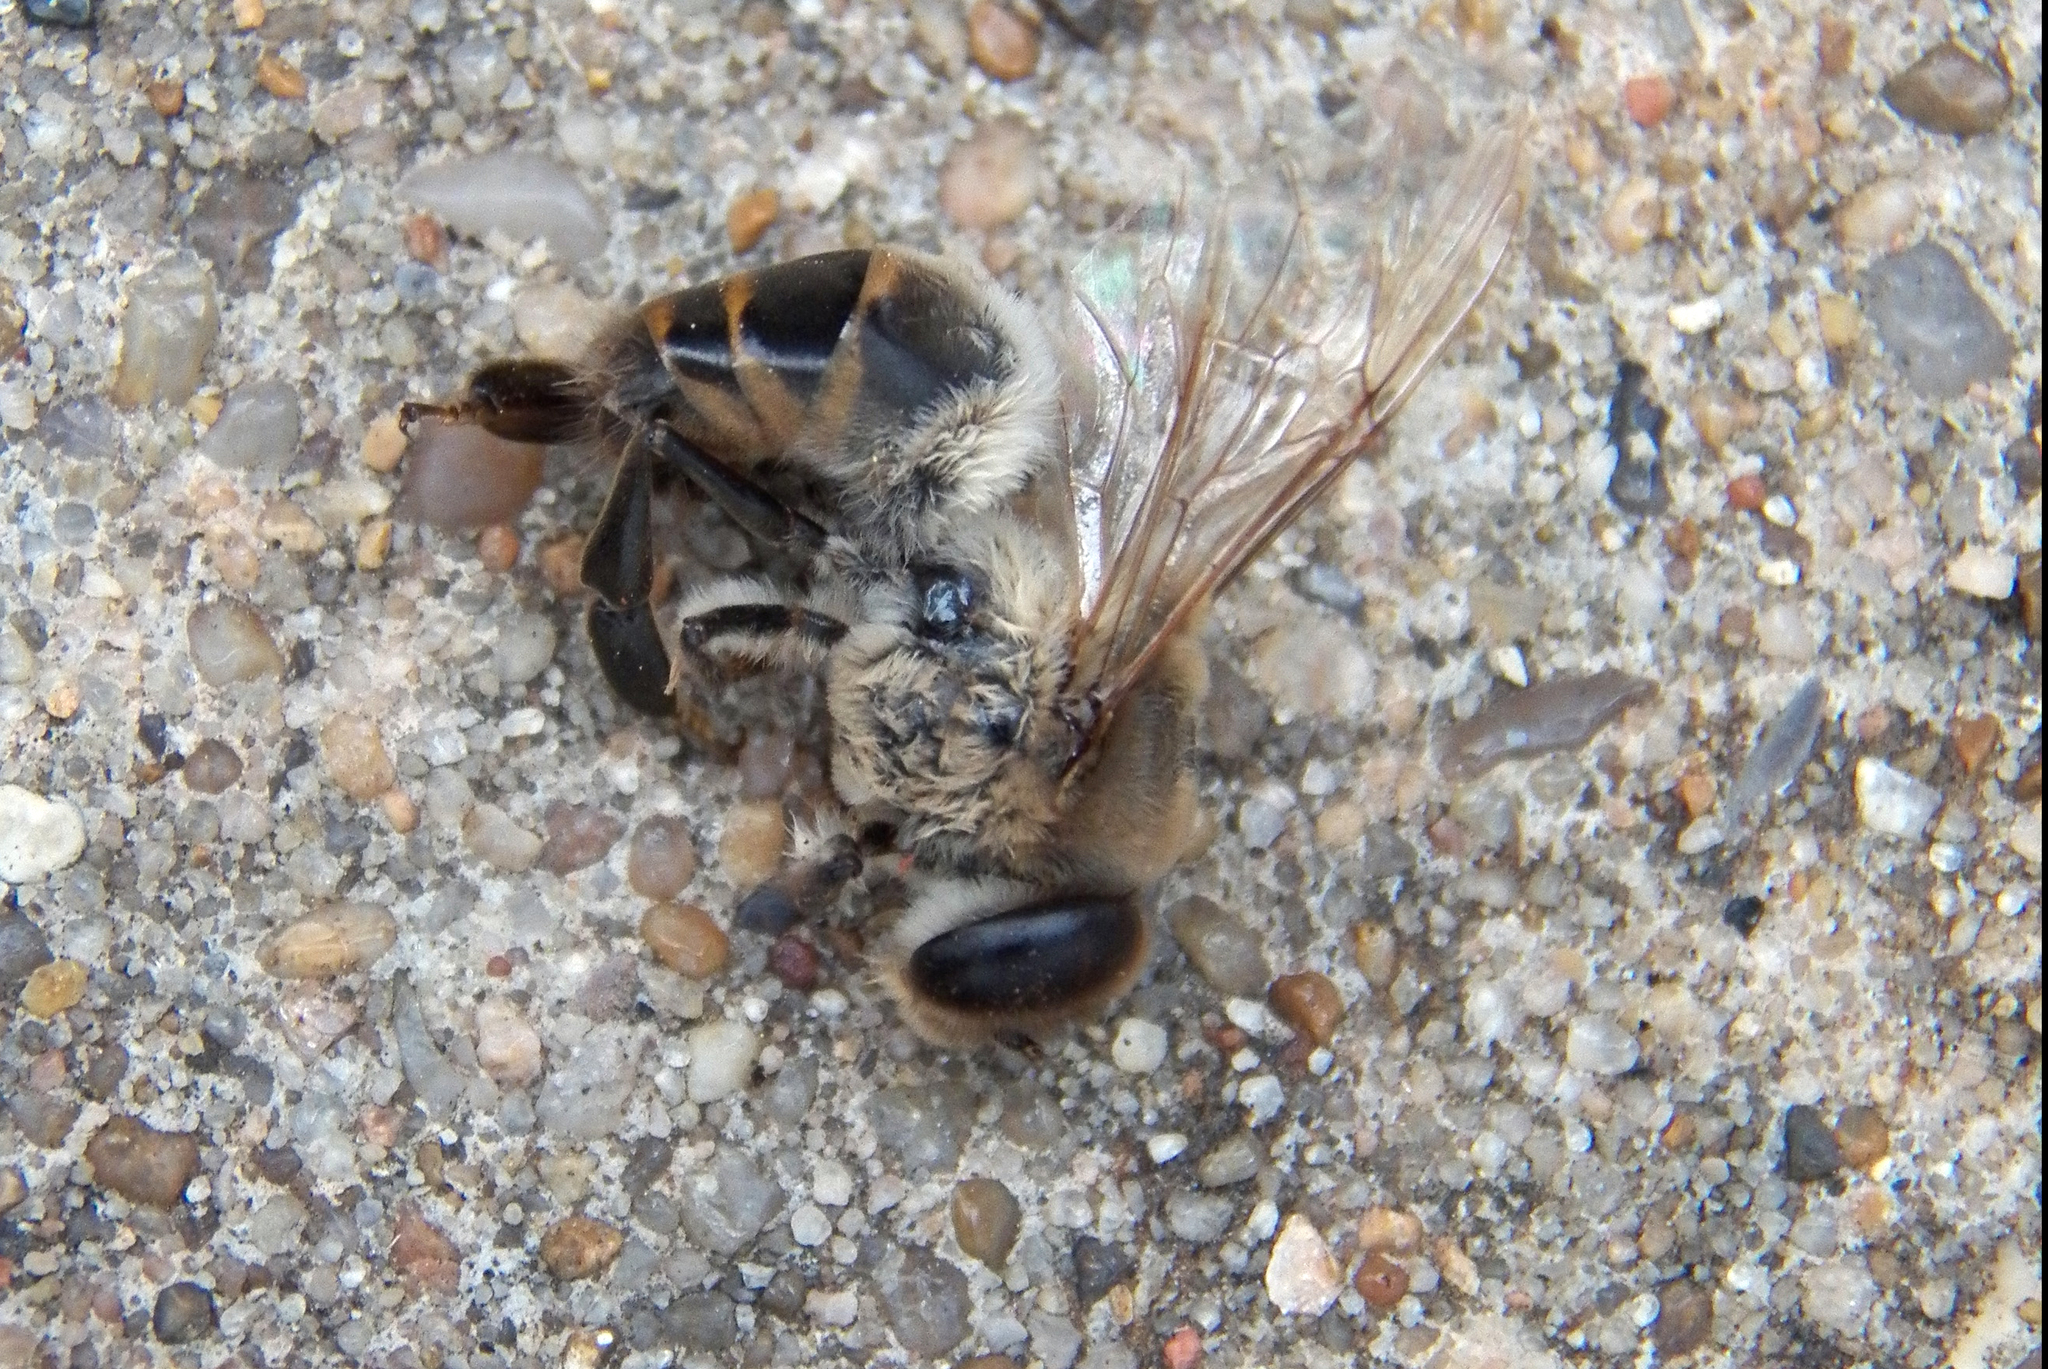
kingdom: Animalia
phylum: Arthropoda
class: Insecta
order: Hymenoptera
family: Apidae
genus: Apis
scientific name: Apis mellifera
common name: Honey bee
